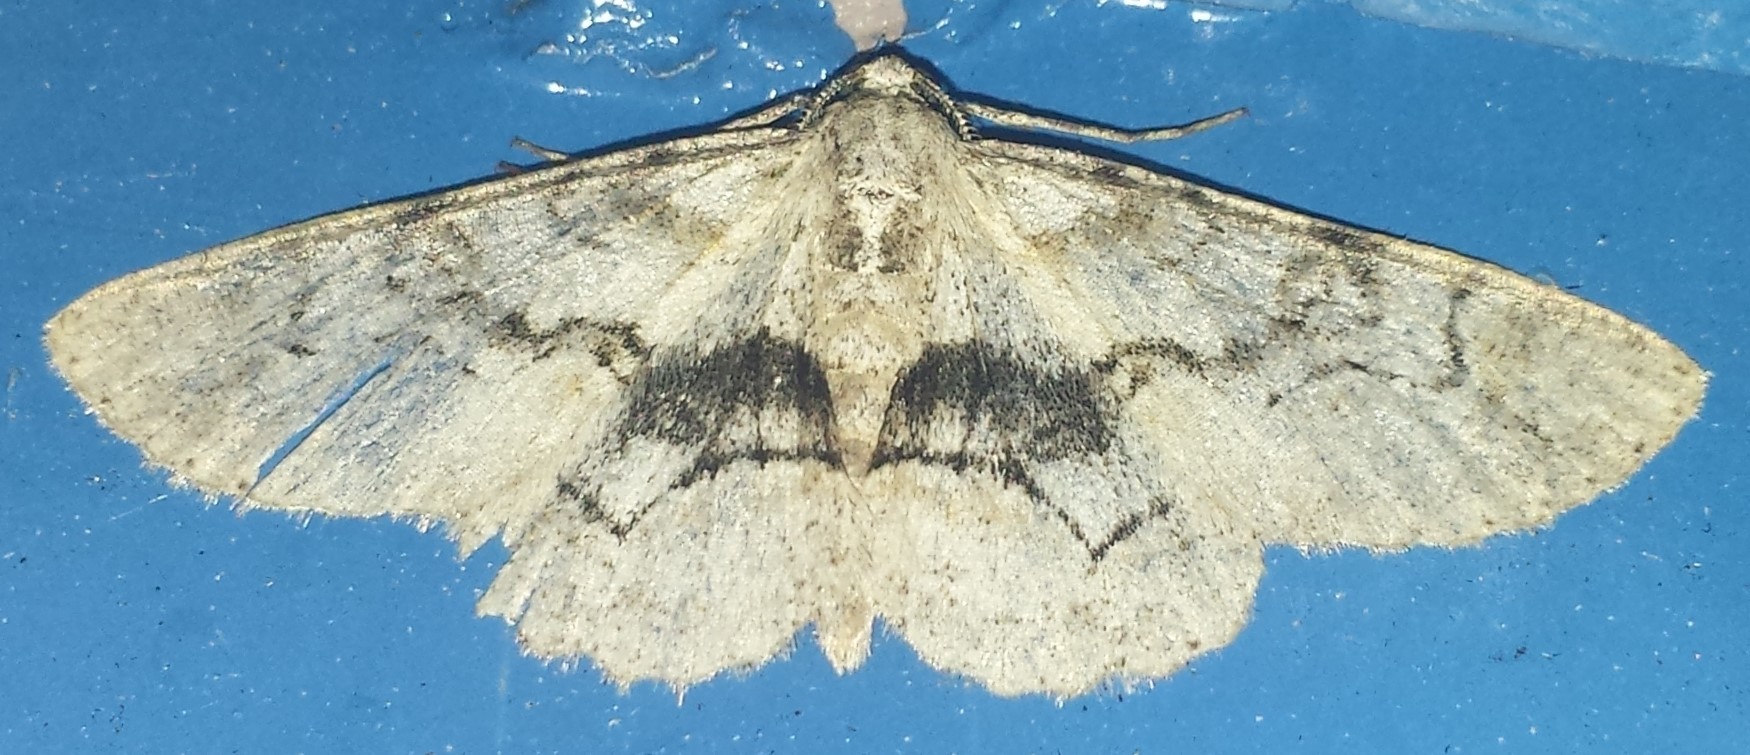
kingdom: Animalia
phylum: Arthropoda
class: Insecta
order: Lepidoptera
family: Geometridae
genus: Iridopsis
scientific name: Iridopsis larvaria
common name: Bent-line gray
